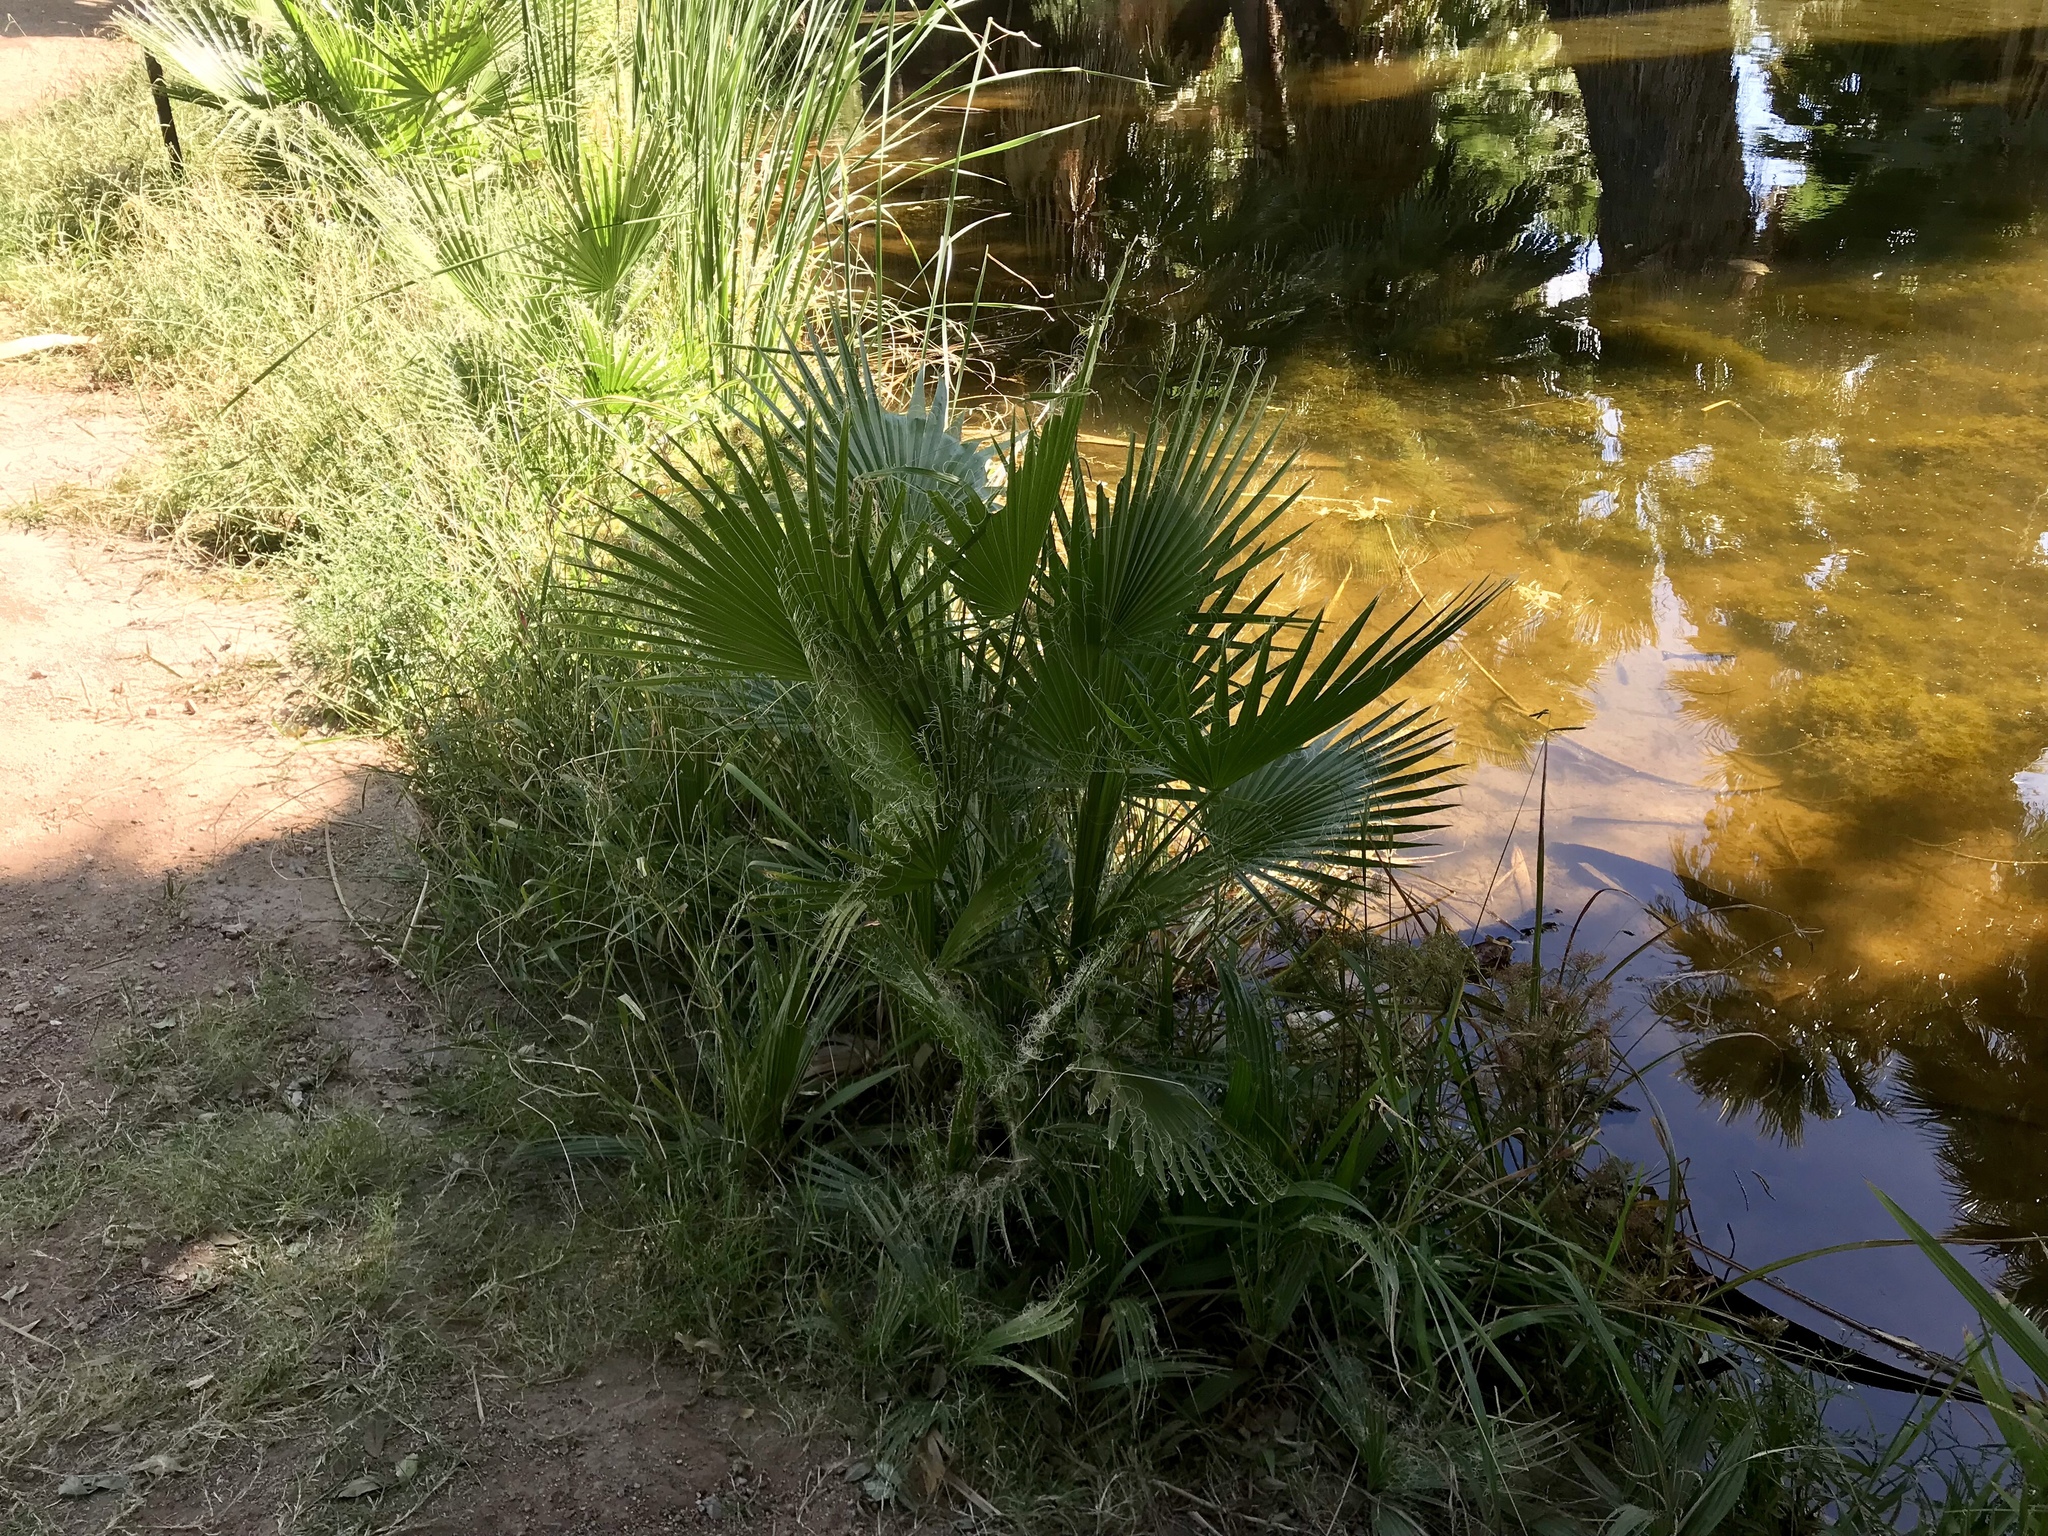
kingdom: Plantae
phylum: Tracheophyta
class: Liliopsida
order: Arecales
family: Arecaceae
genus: Washingtonia
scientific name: Washingtonia filifera
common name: California fan palm
